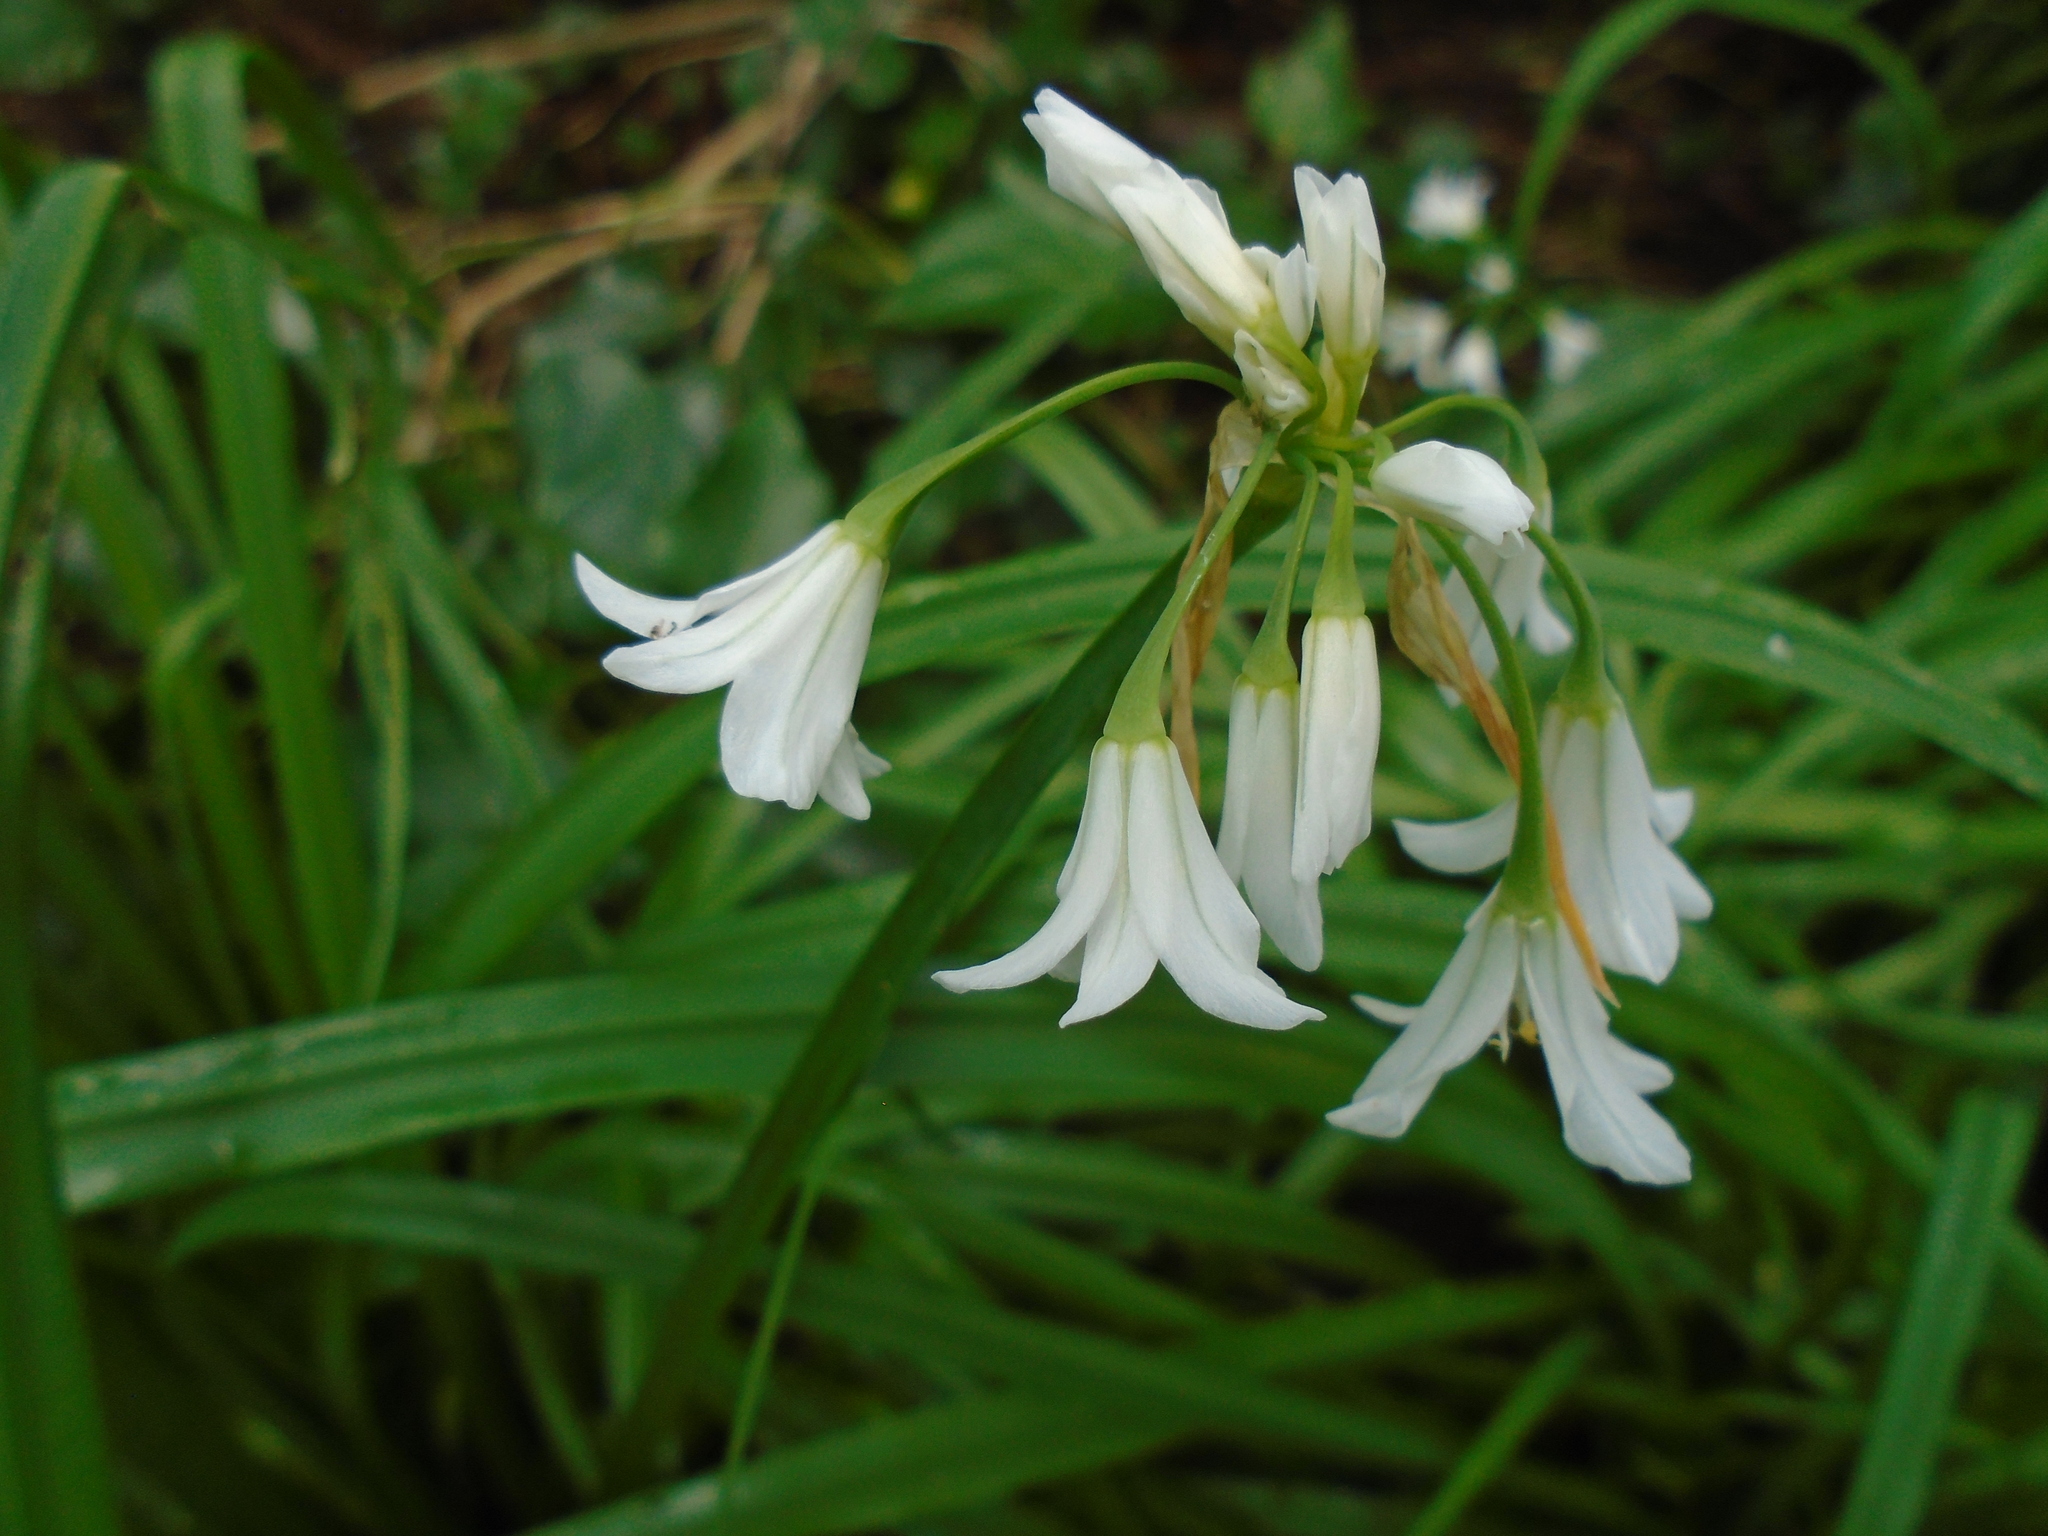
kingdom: Plantae
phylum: Tracheophyta
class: Liliopsida
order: Asparagales
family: Amaryllidaceae
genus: Allium
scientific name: Allium triquetrum
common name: Three-cornered garlic
